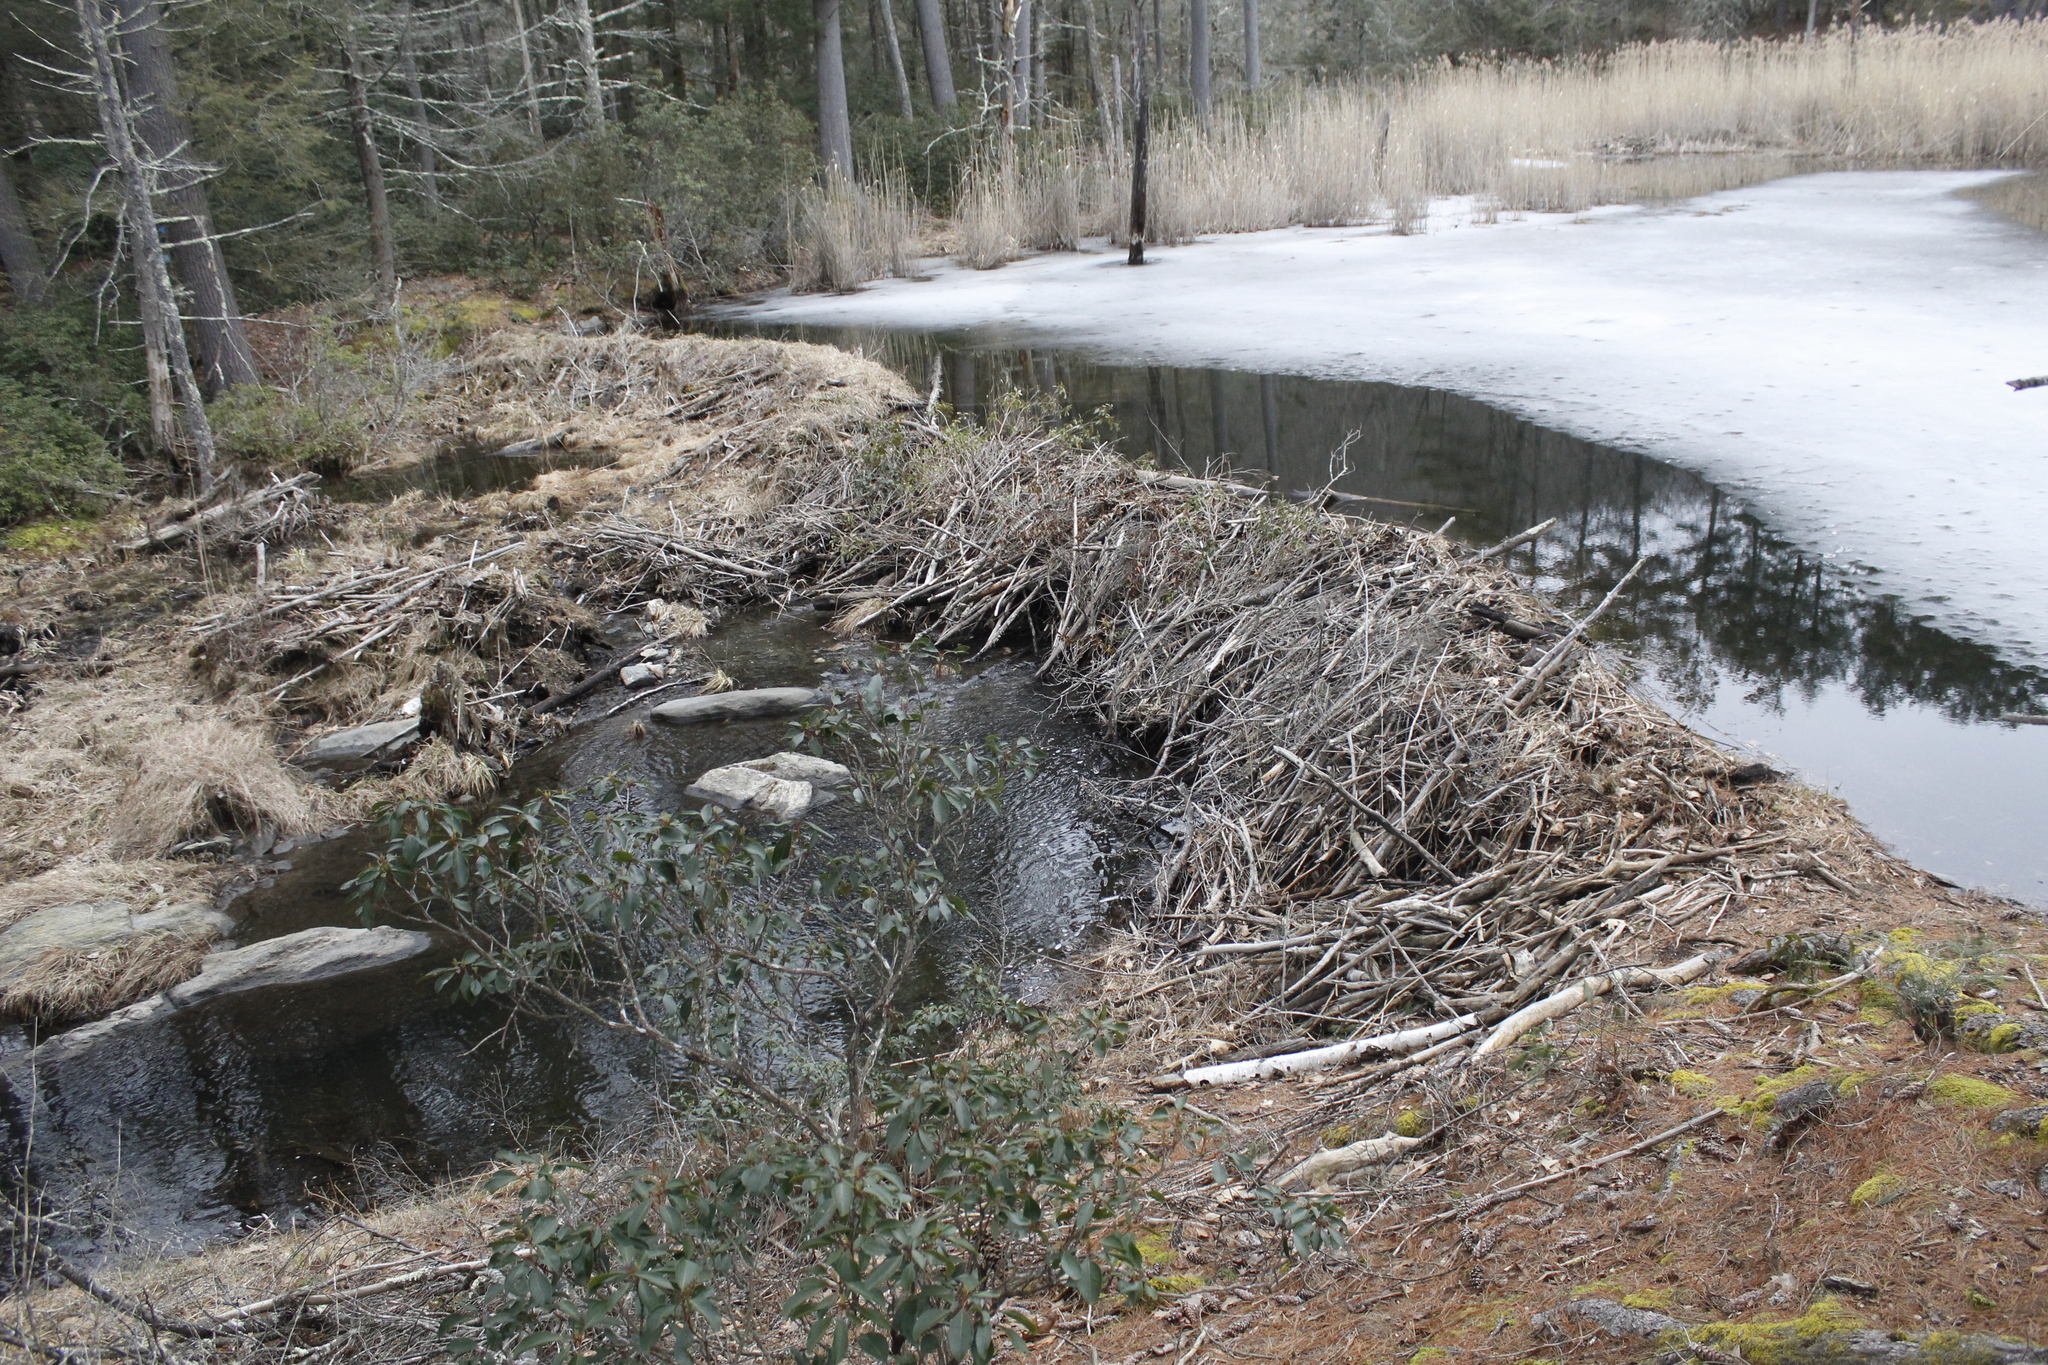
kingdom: Animalia
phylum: Chordata
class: Mammalia
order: Rodentia
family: Castoridae
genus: Castor
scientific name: Castor canadensis
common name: American beaver
